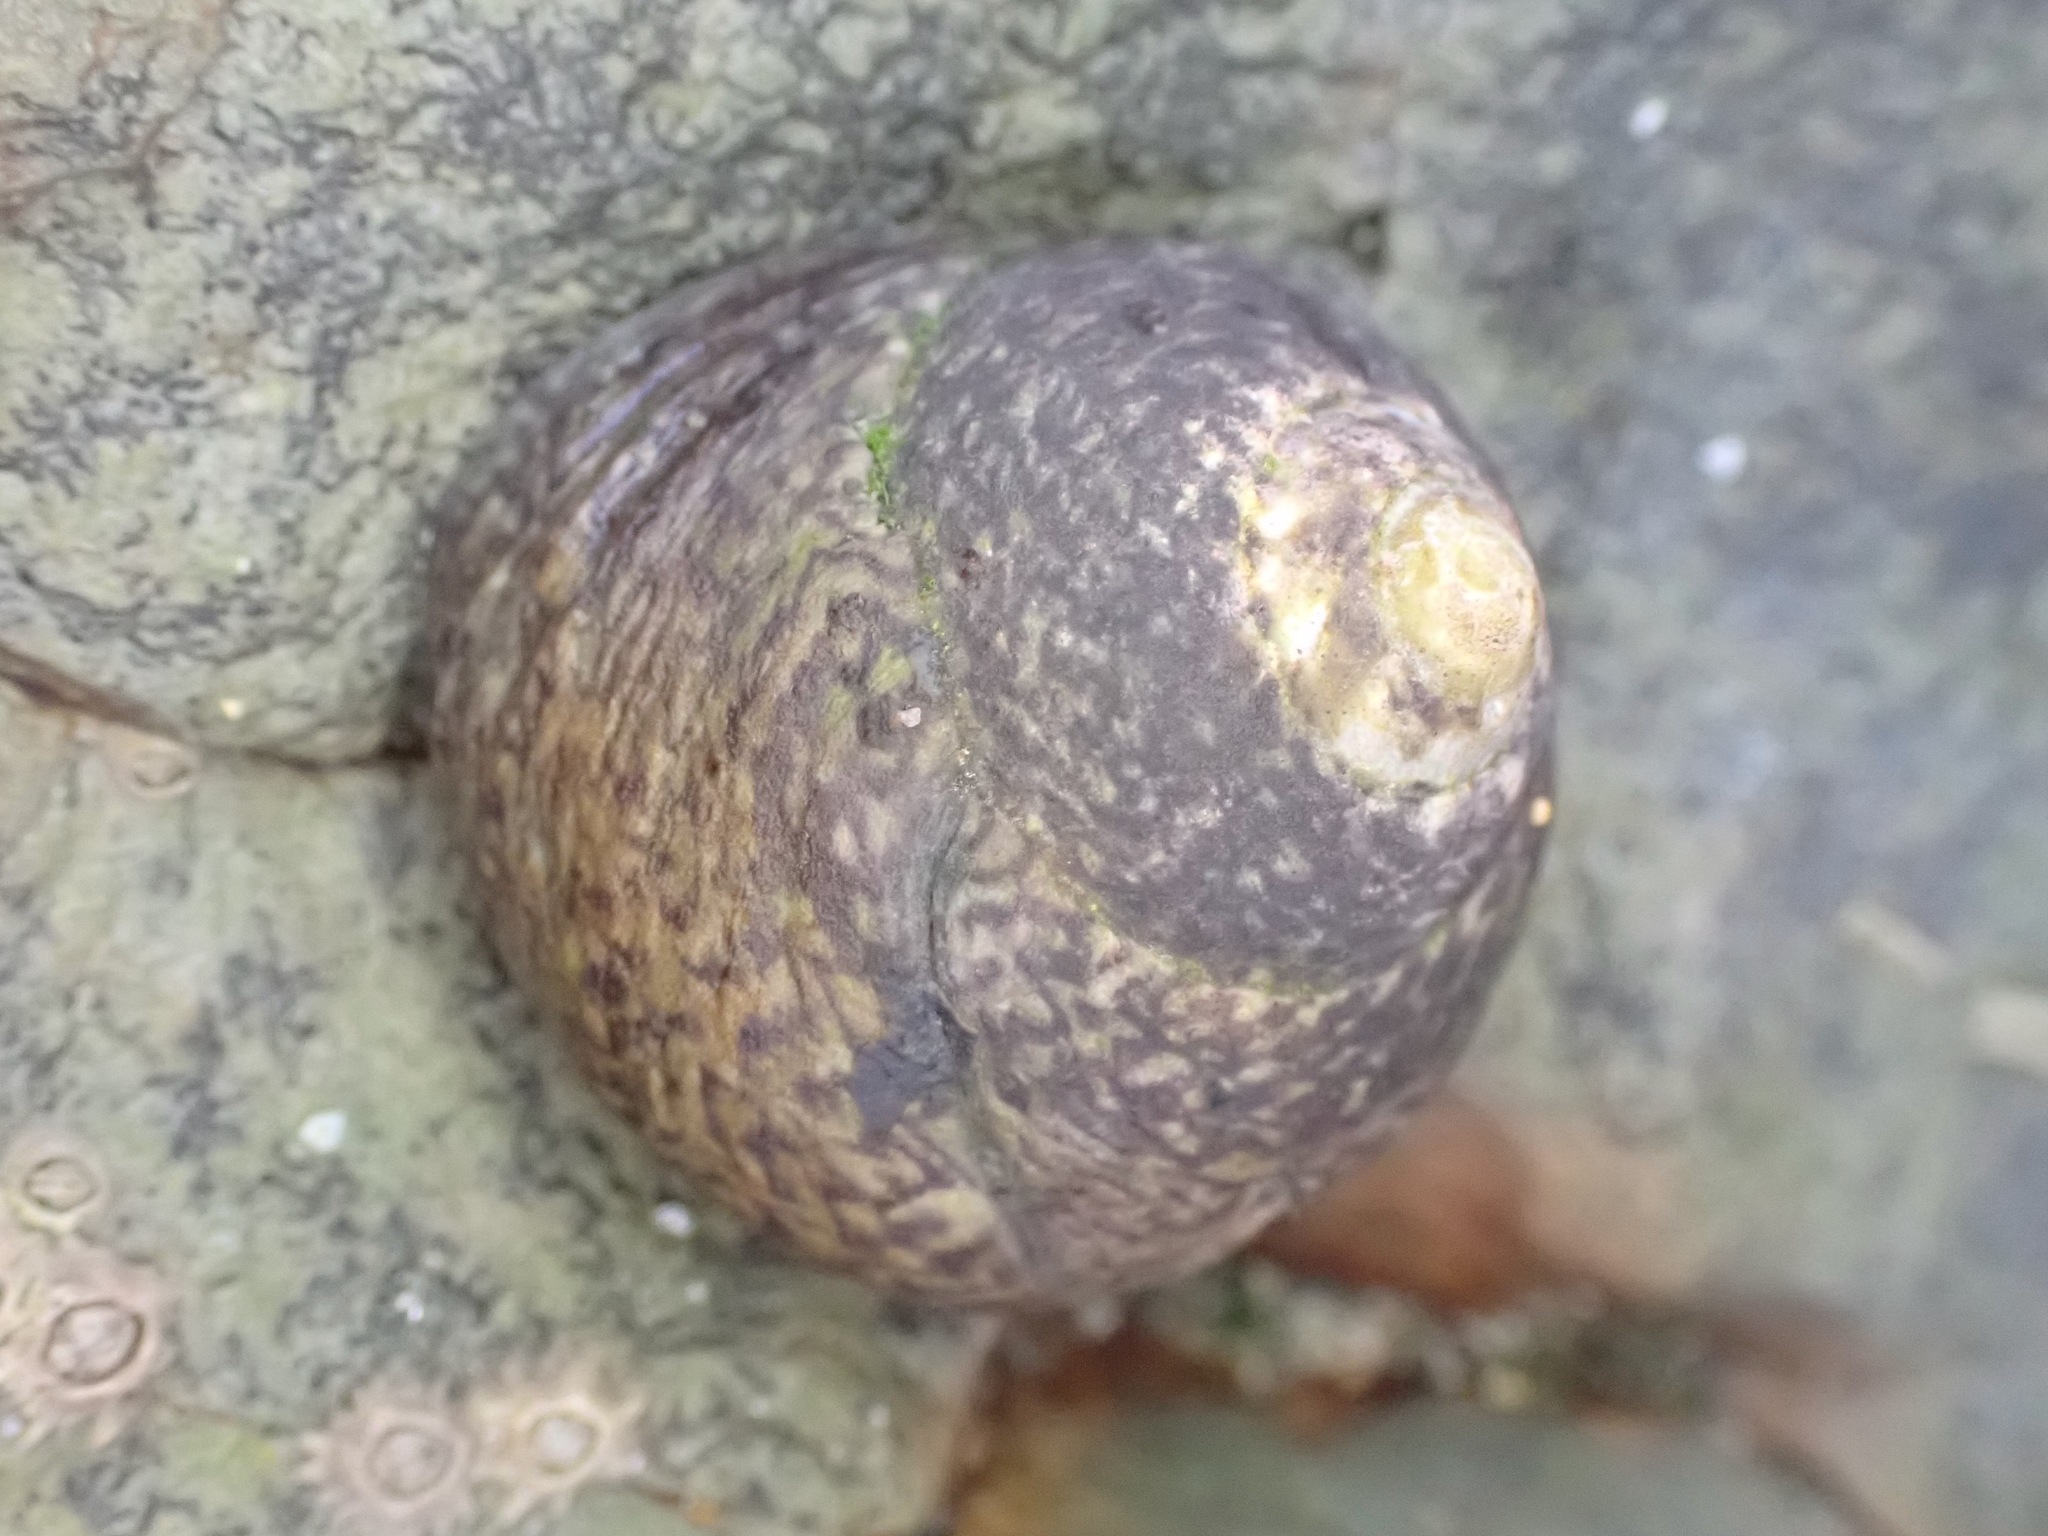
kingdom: Animalia
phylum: Mollusca
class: Gastropoda
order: Trochida
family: Trochidae
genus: Phorcus
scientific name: Phorcus lineatus
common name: Toothed top shell
